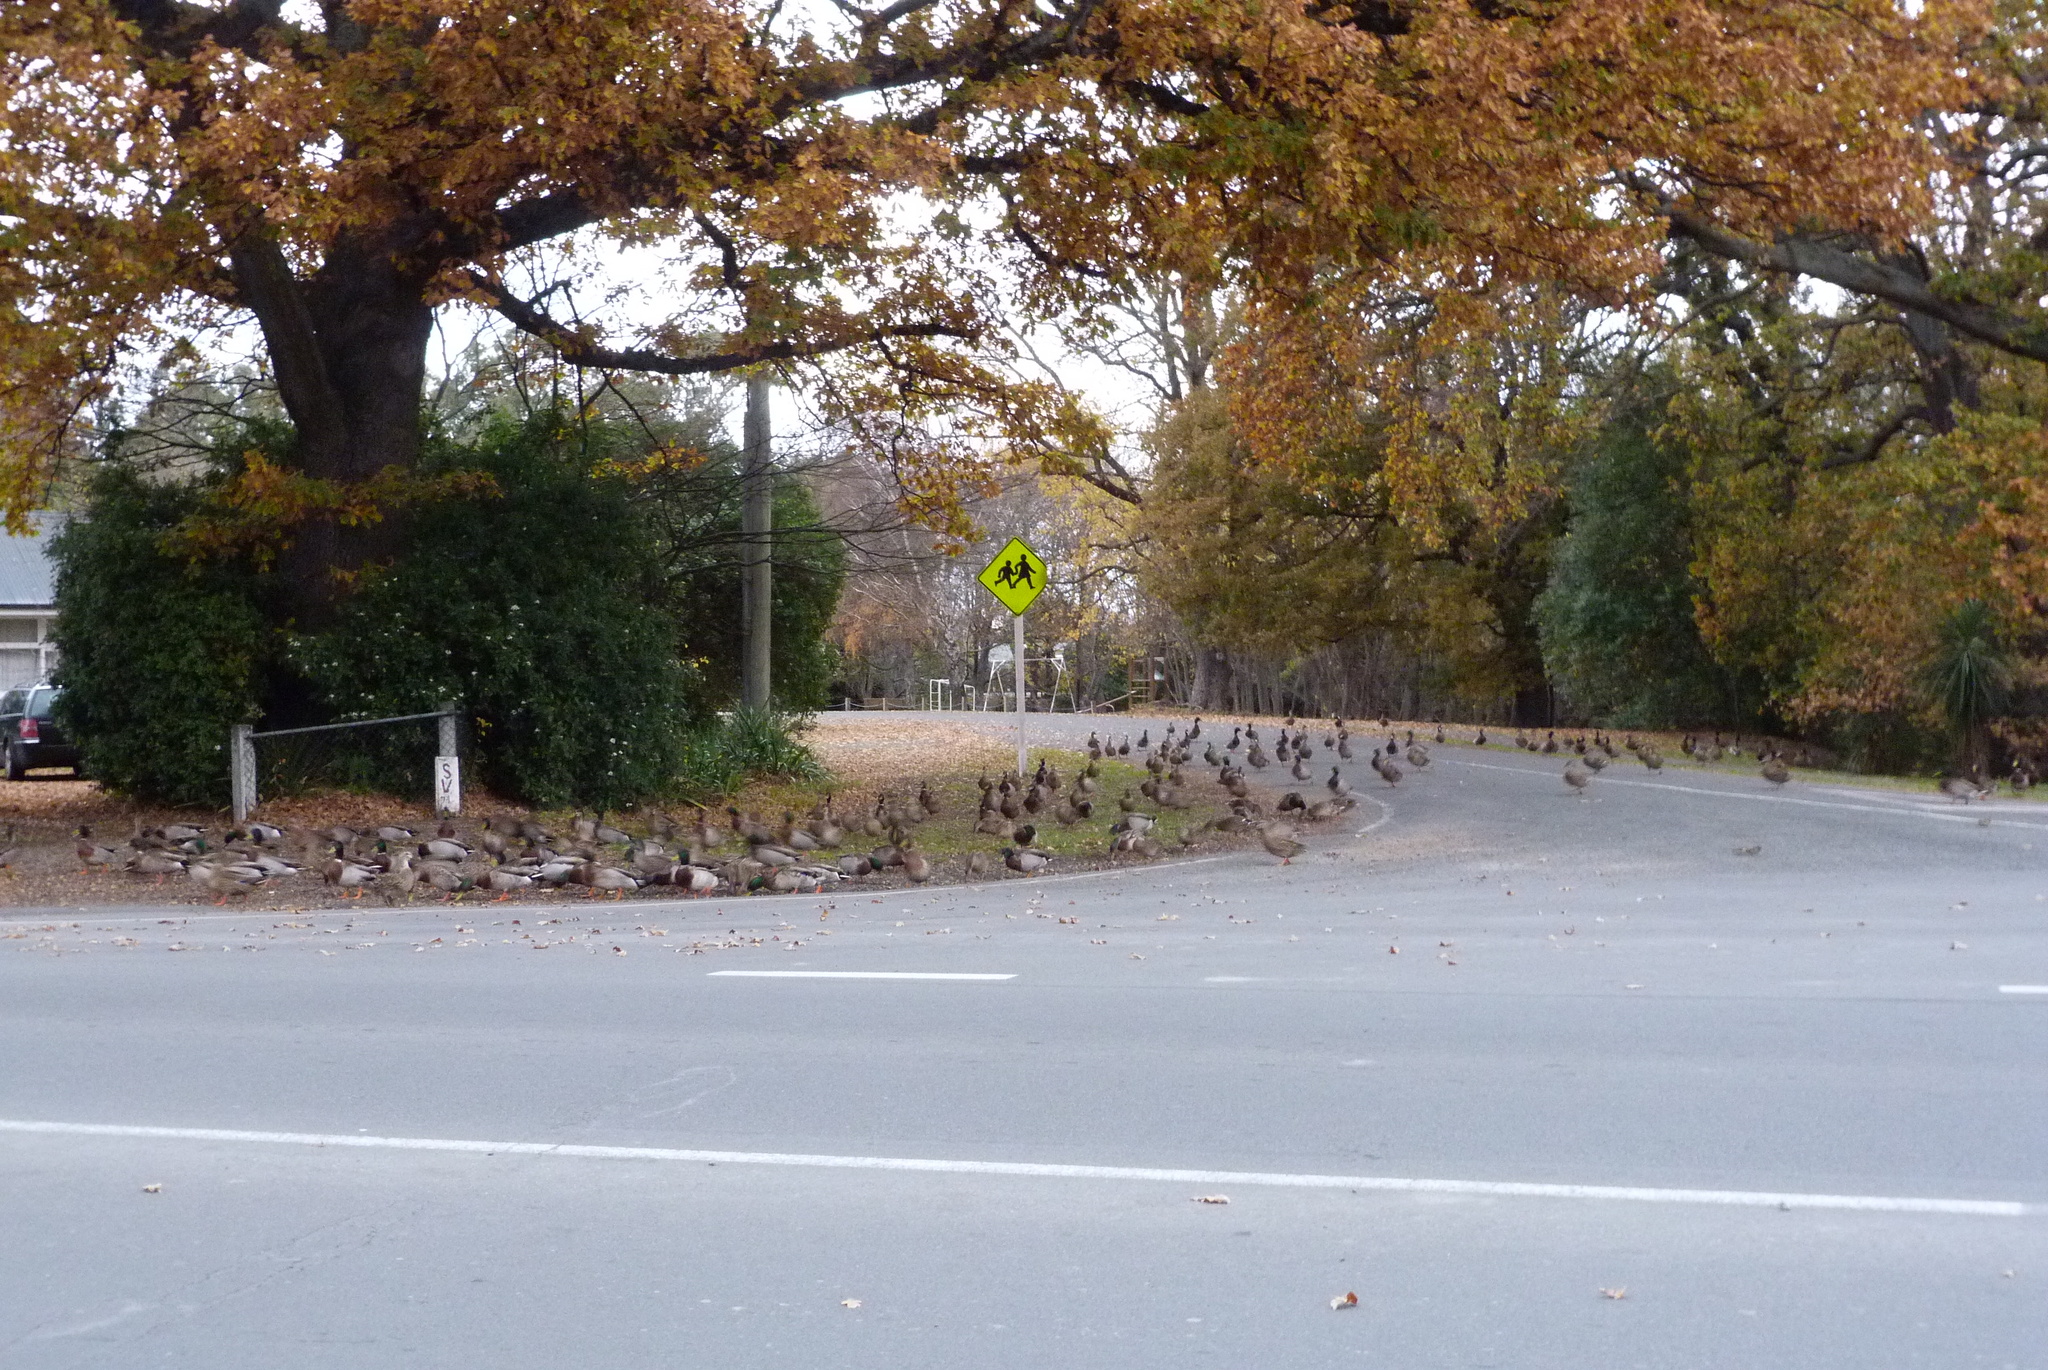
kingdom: Animalia
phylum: Chordata
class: Aves
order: Anseriformes
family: Anatidae
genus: Anas
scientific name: Anas platyrhynchos
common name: Mallard
